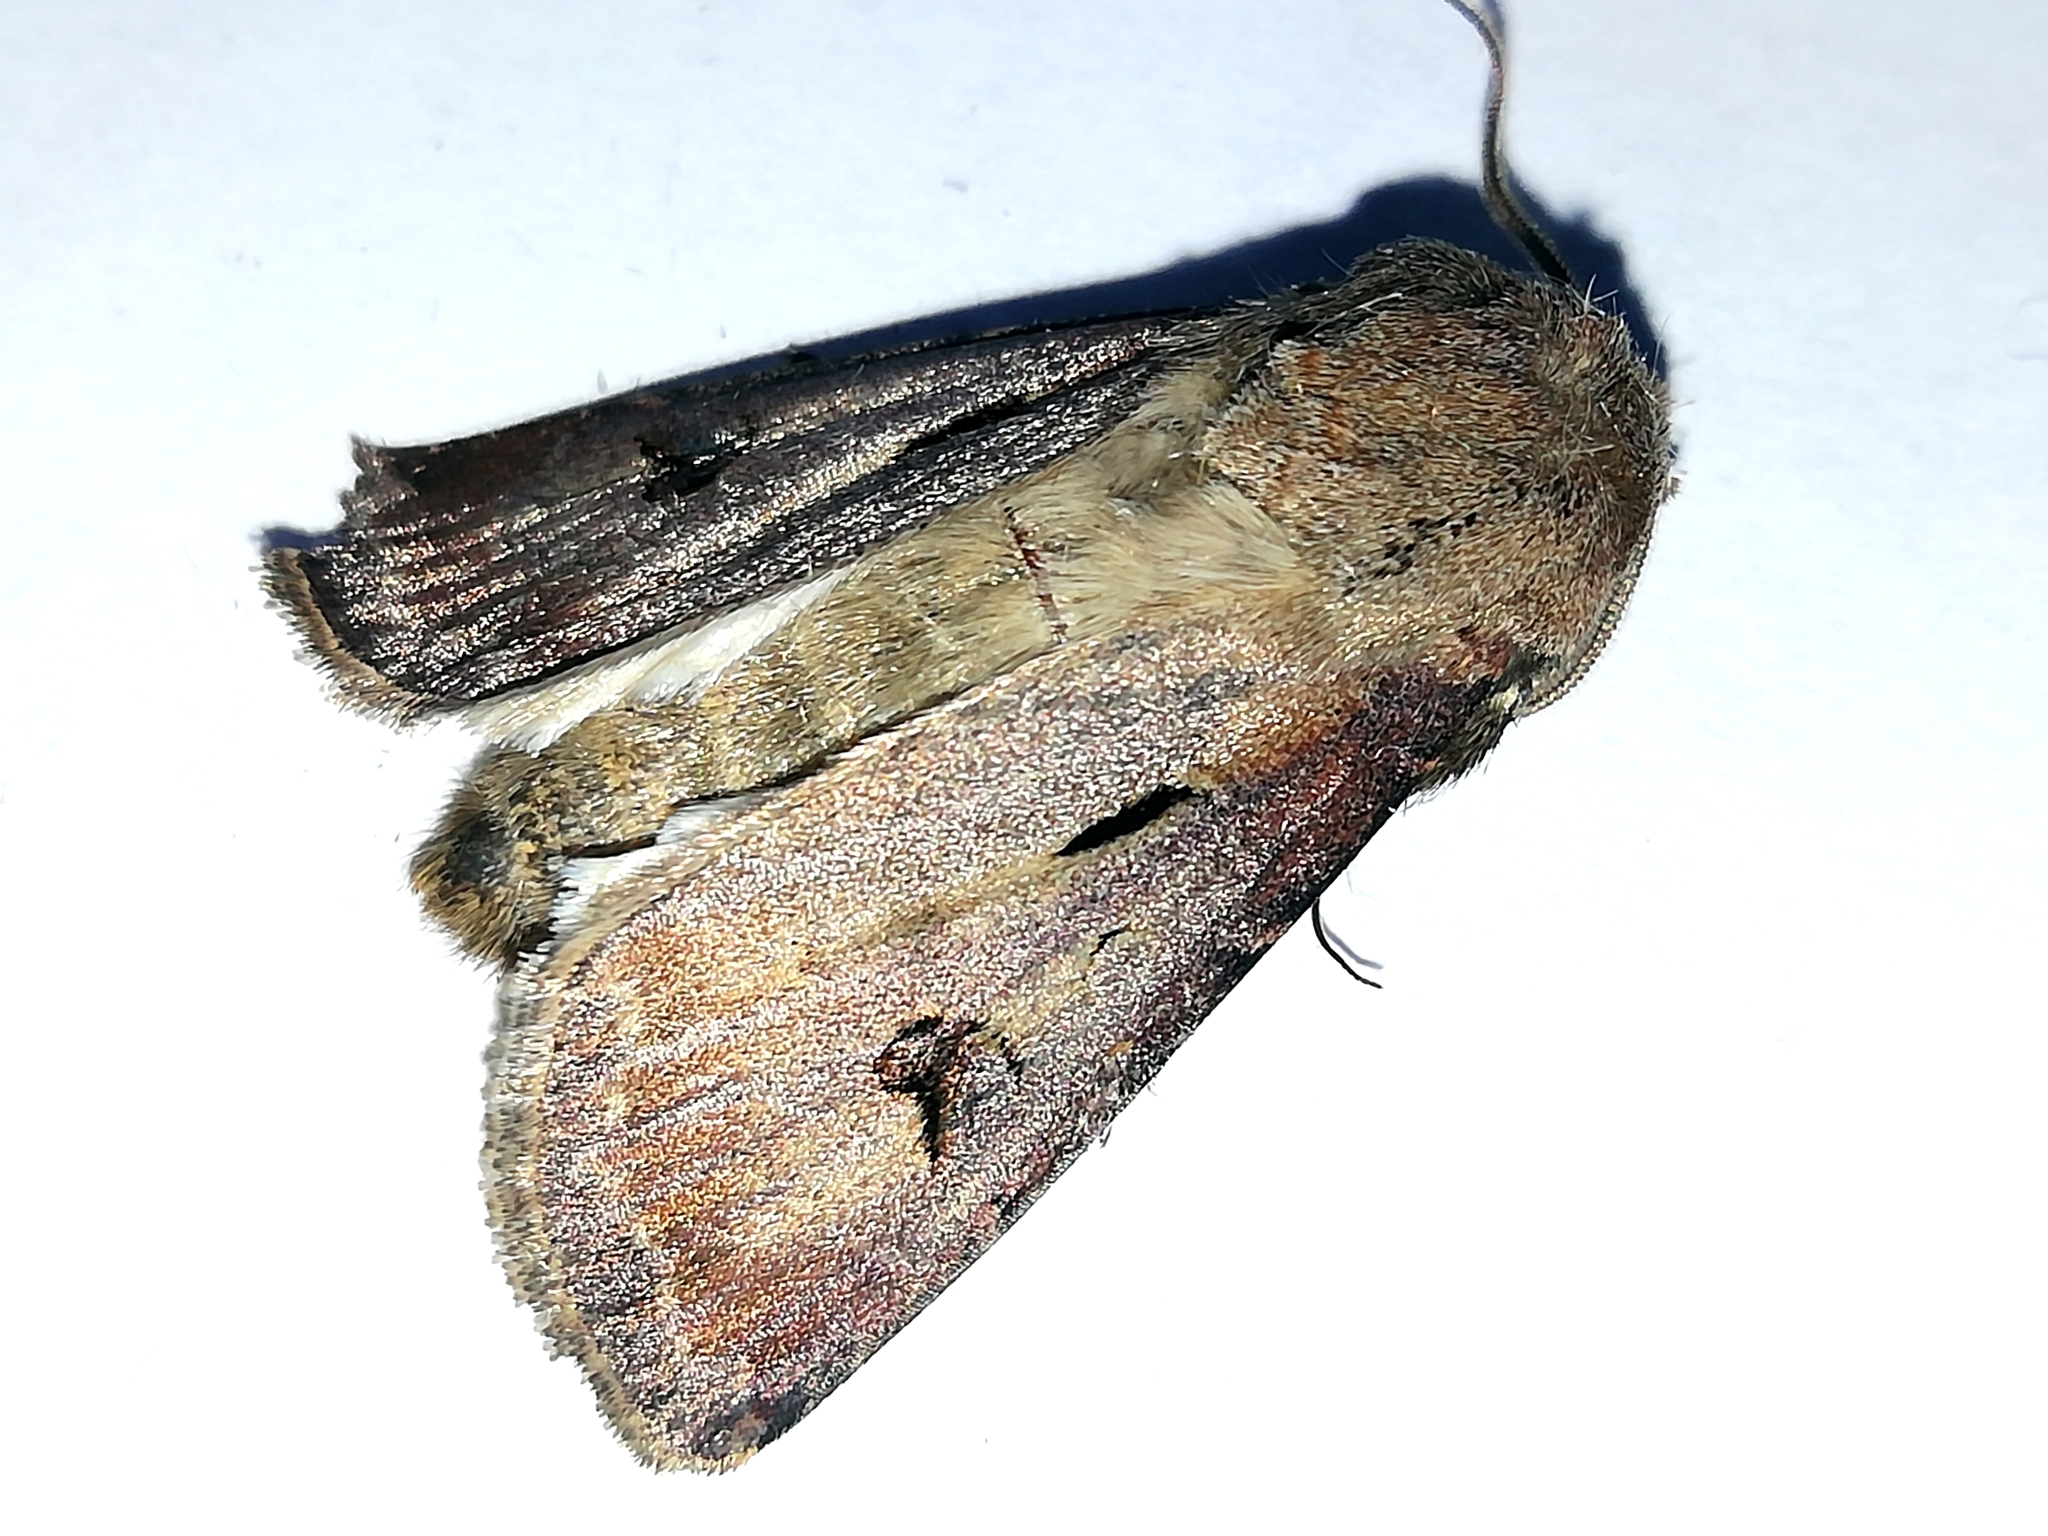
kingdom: Animalia
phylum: Arthropoda
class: Insecta
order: Lepidoptera
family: Noctuidae
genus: Agrotis
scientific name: Agrotis exclamationis
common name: Heart and dart
